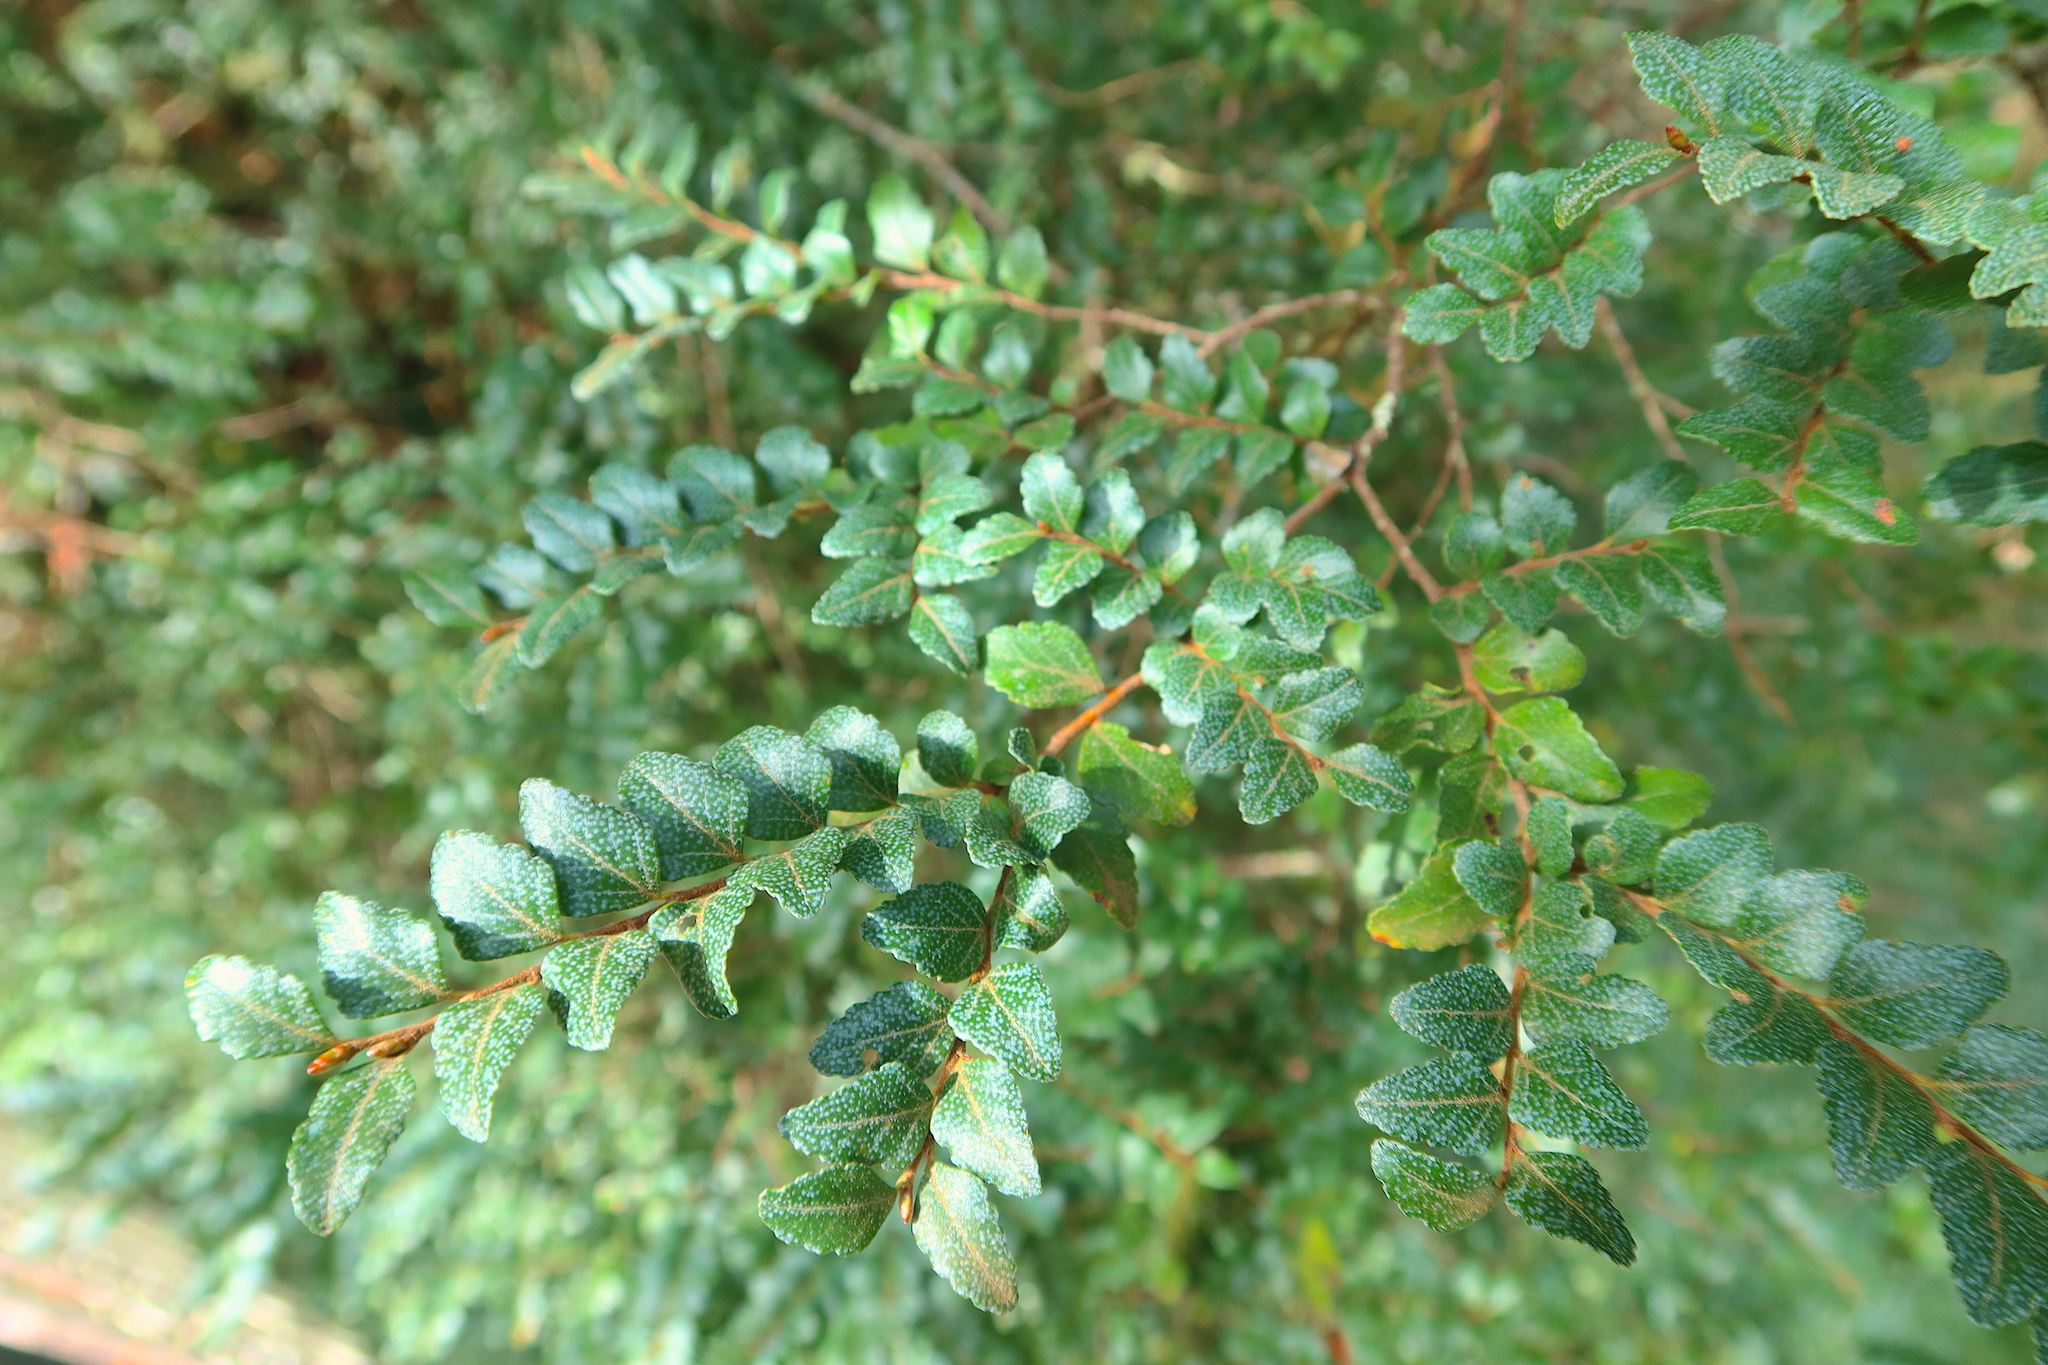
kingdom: Plantae
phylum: Tracheophyta
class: Magnoliopsida
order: Fagales
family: Nothofagaceae
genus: Nothofagus
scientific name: Nothofagus cunninghamii
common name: Myrtle beech
